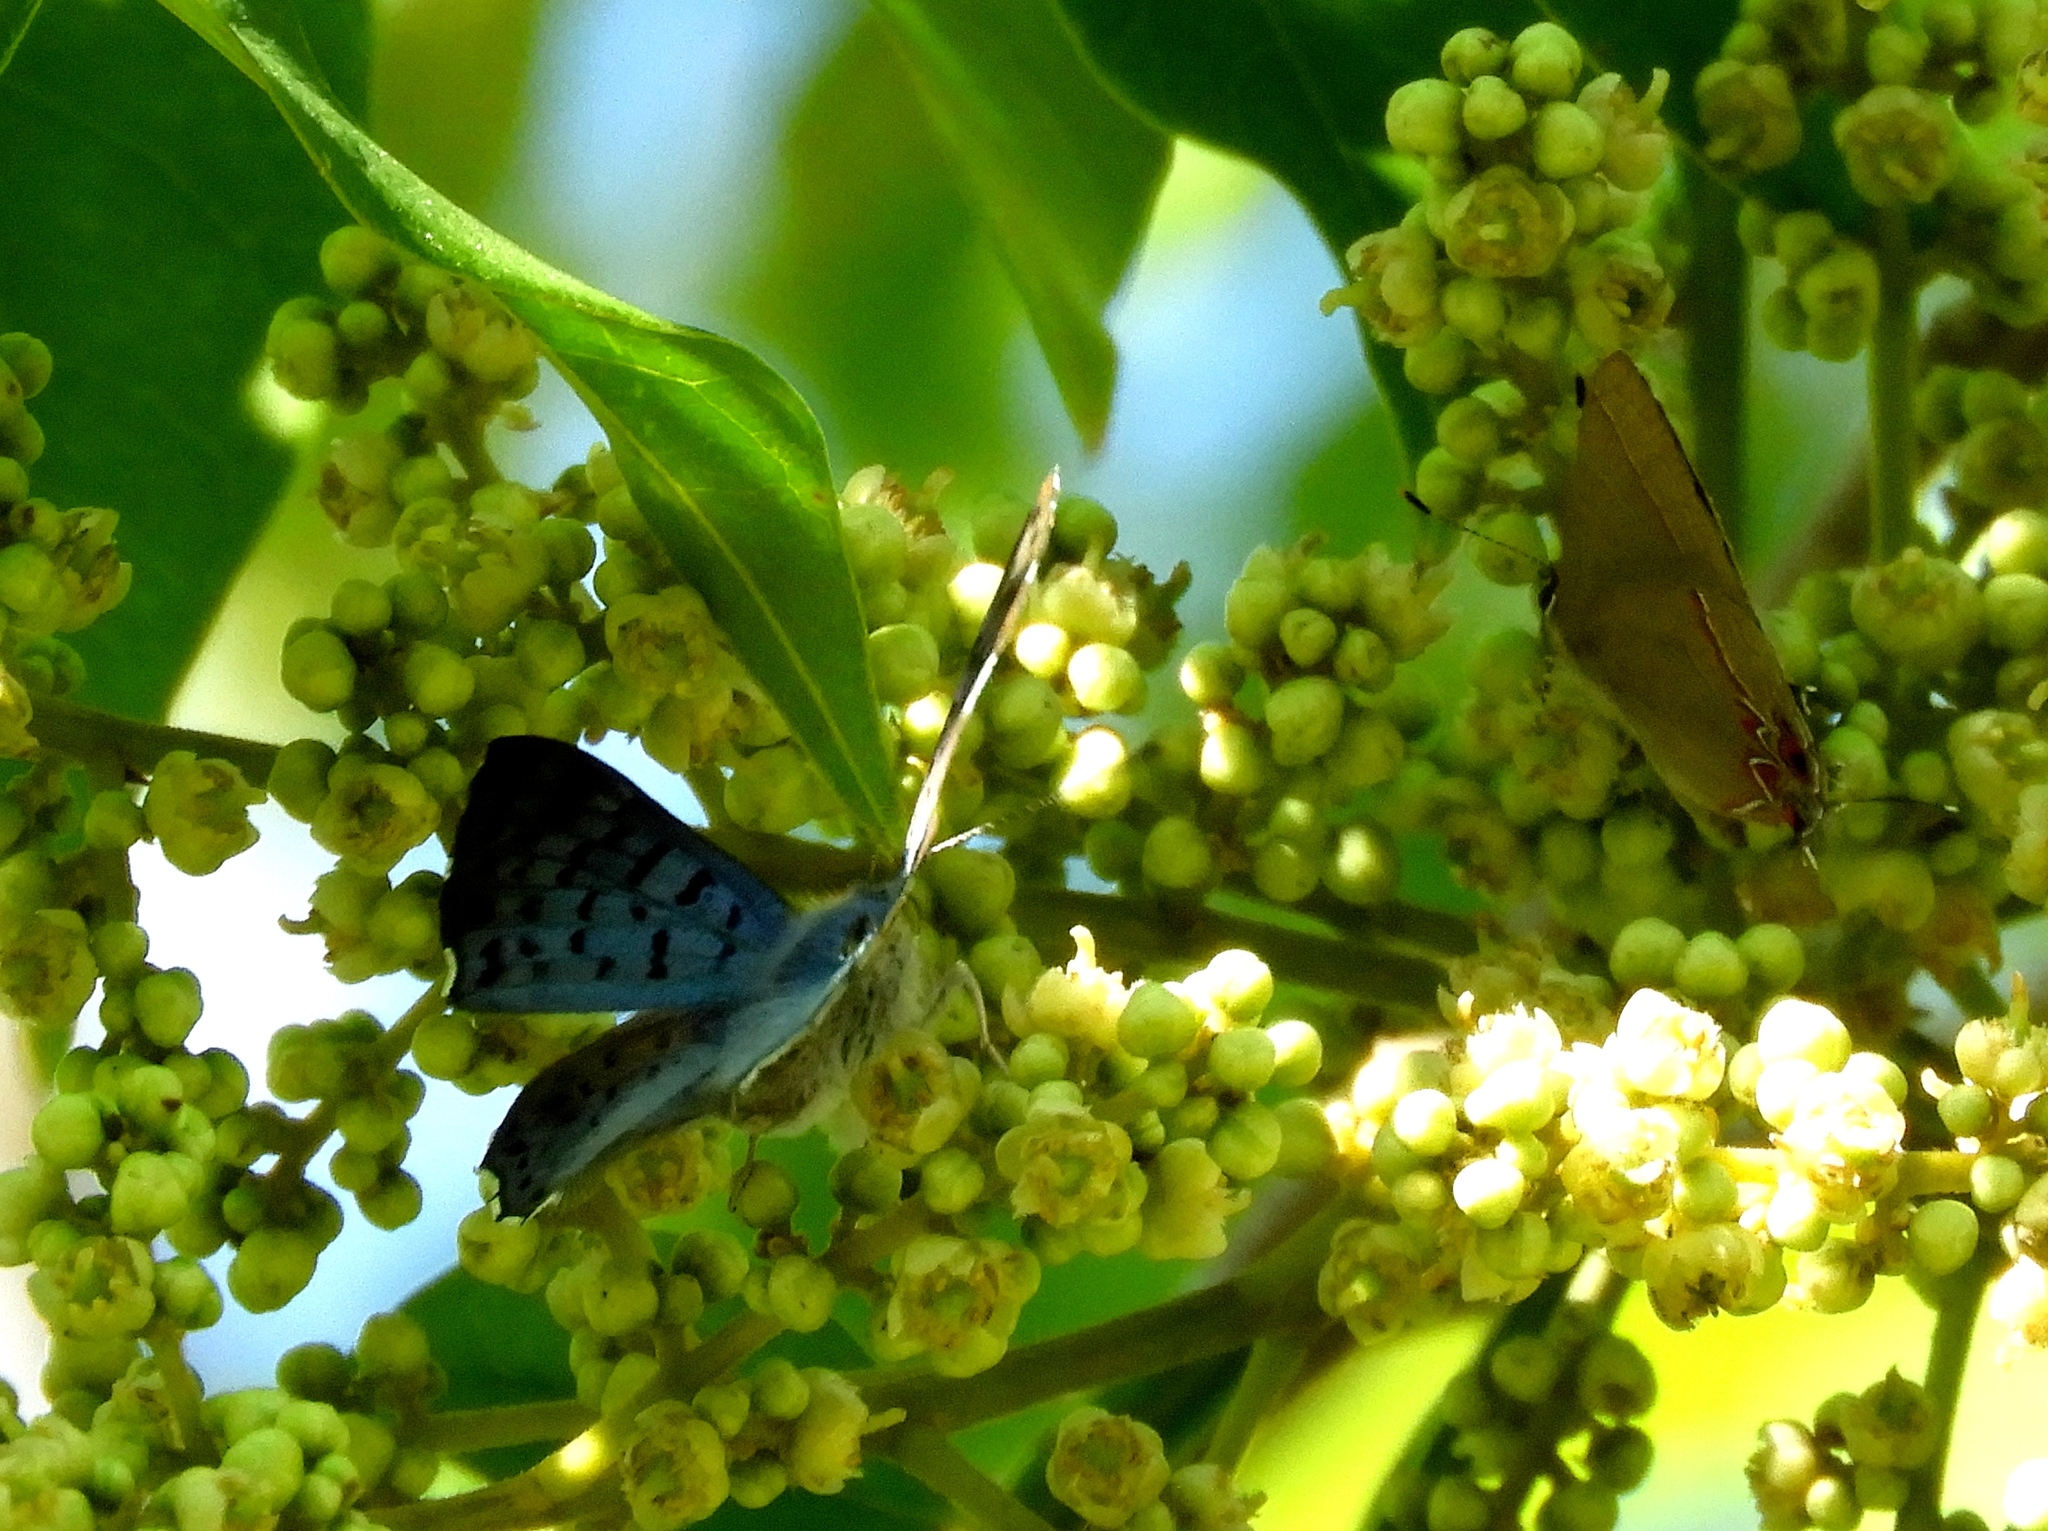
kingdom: Animalia
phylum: Arthropoda
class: Insecta
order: Diptera
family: Acroceridae
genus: Lasia
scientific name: Lasia
